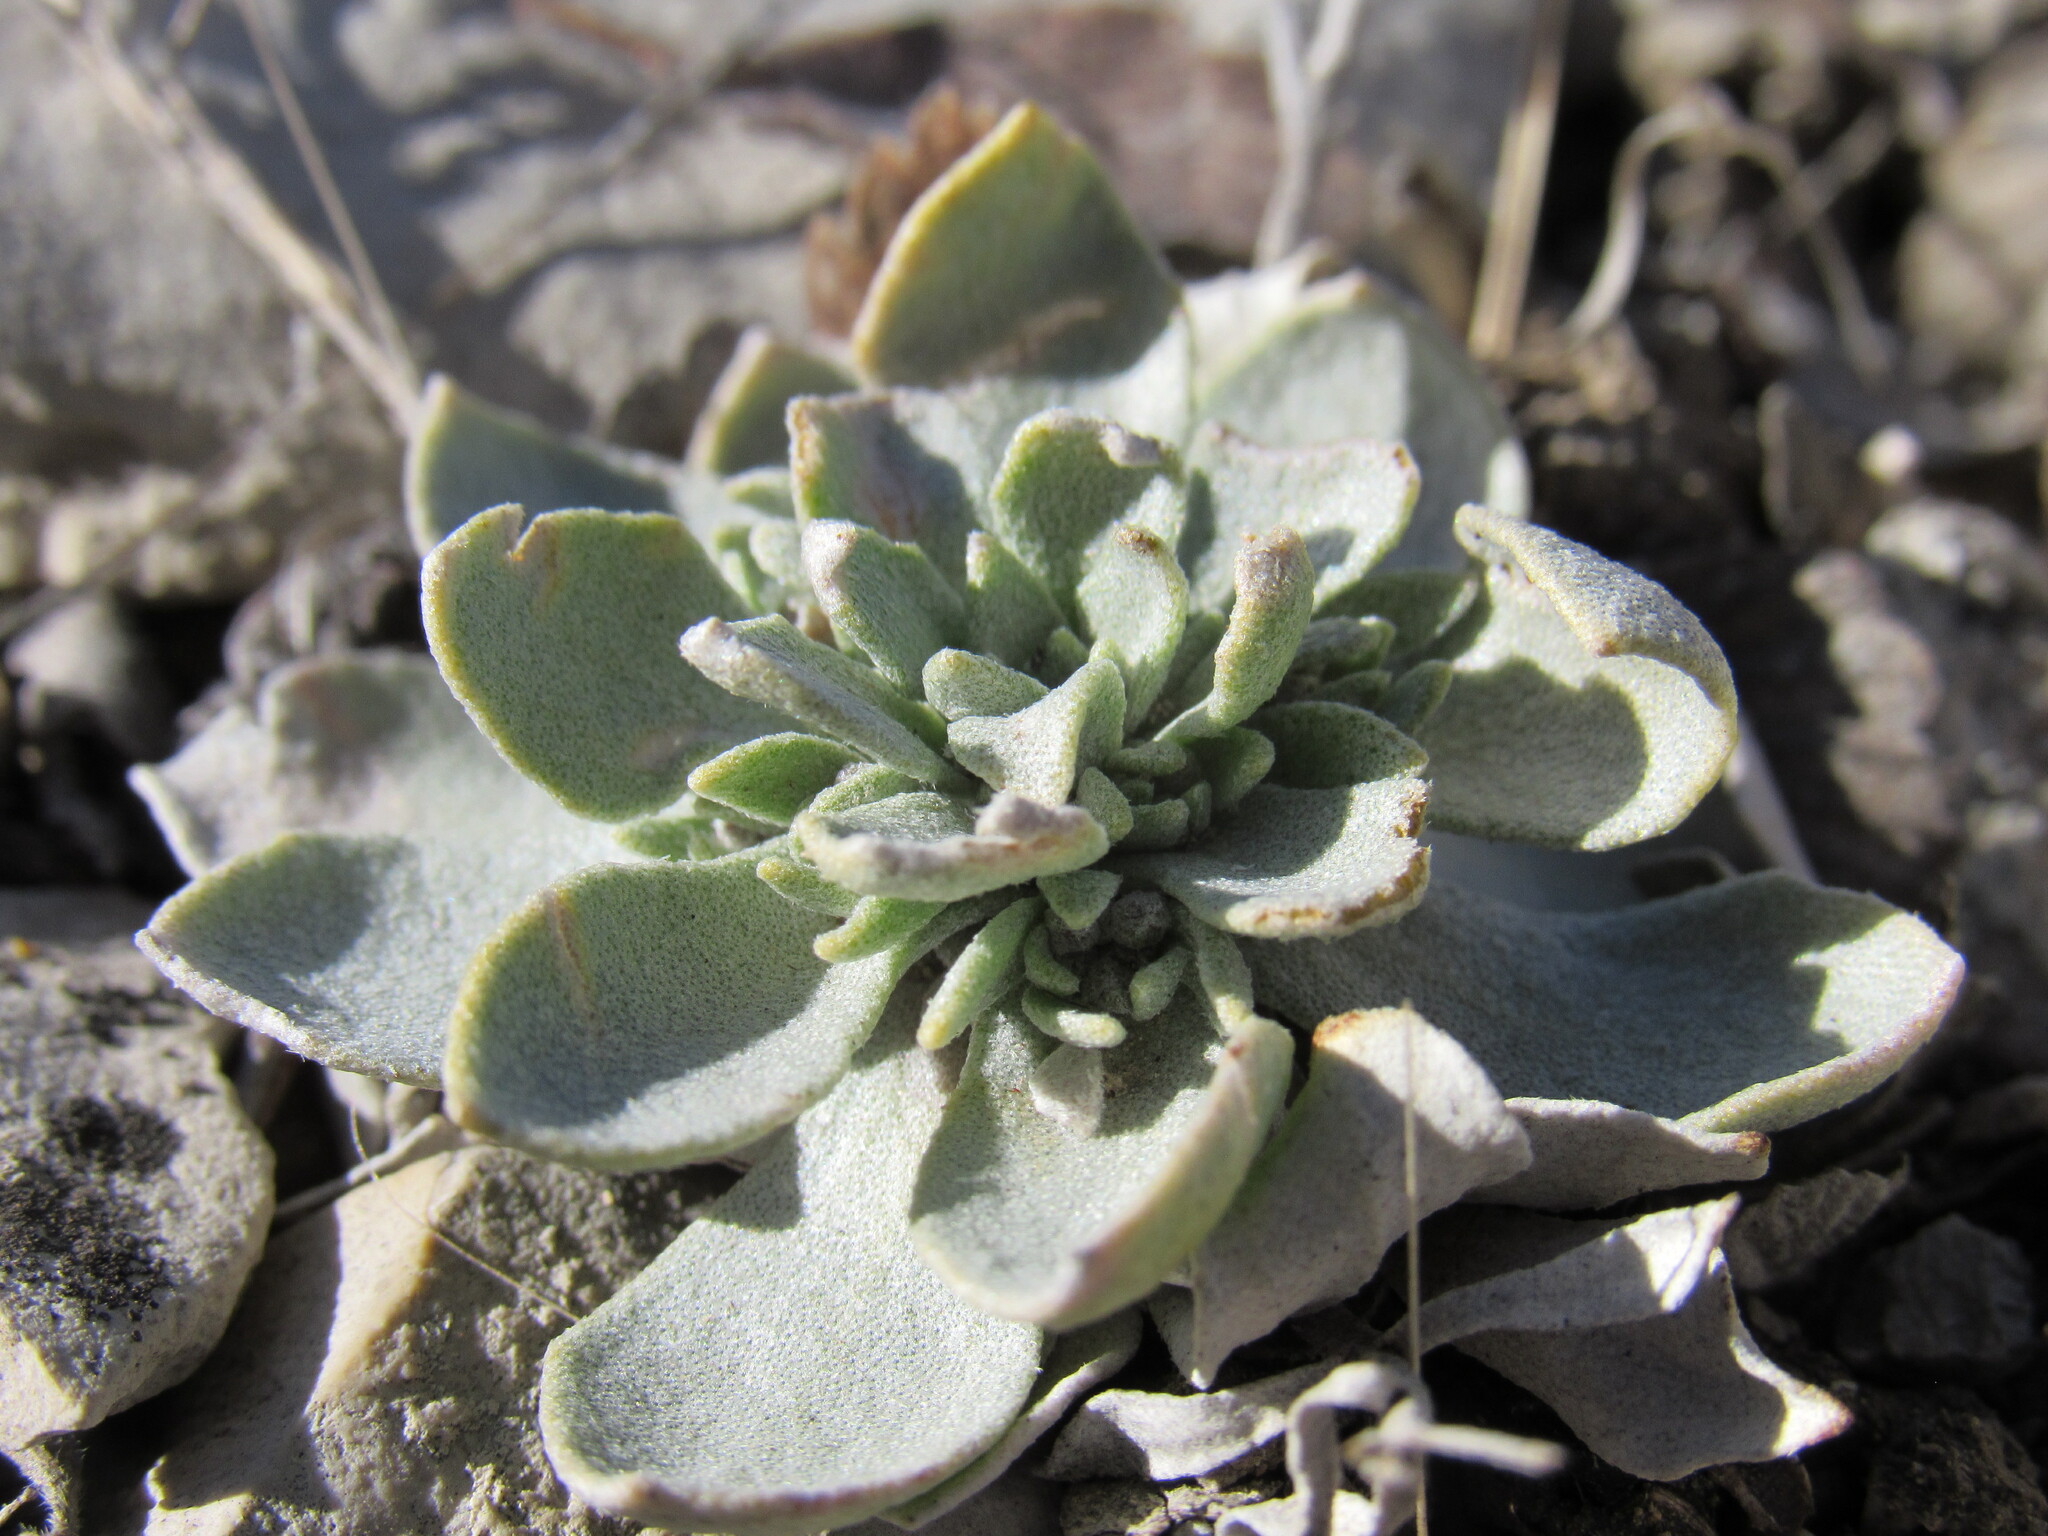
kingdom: Plantae
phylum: Tracheophyta
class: Magnoliopsida
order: Brassicales
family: Brassicaceae
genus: Physaria
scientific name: Physaria bellii
